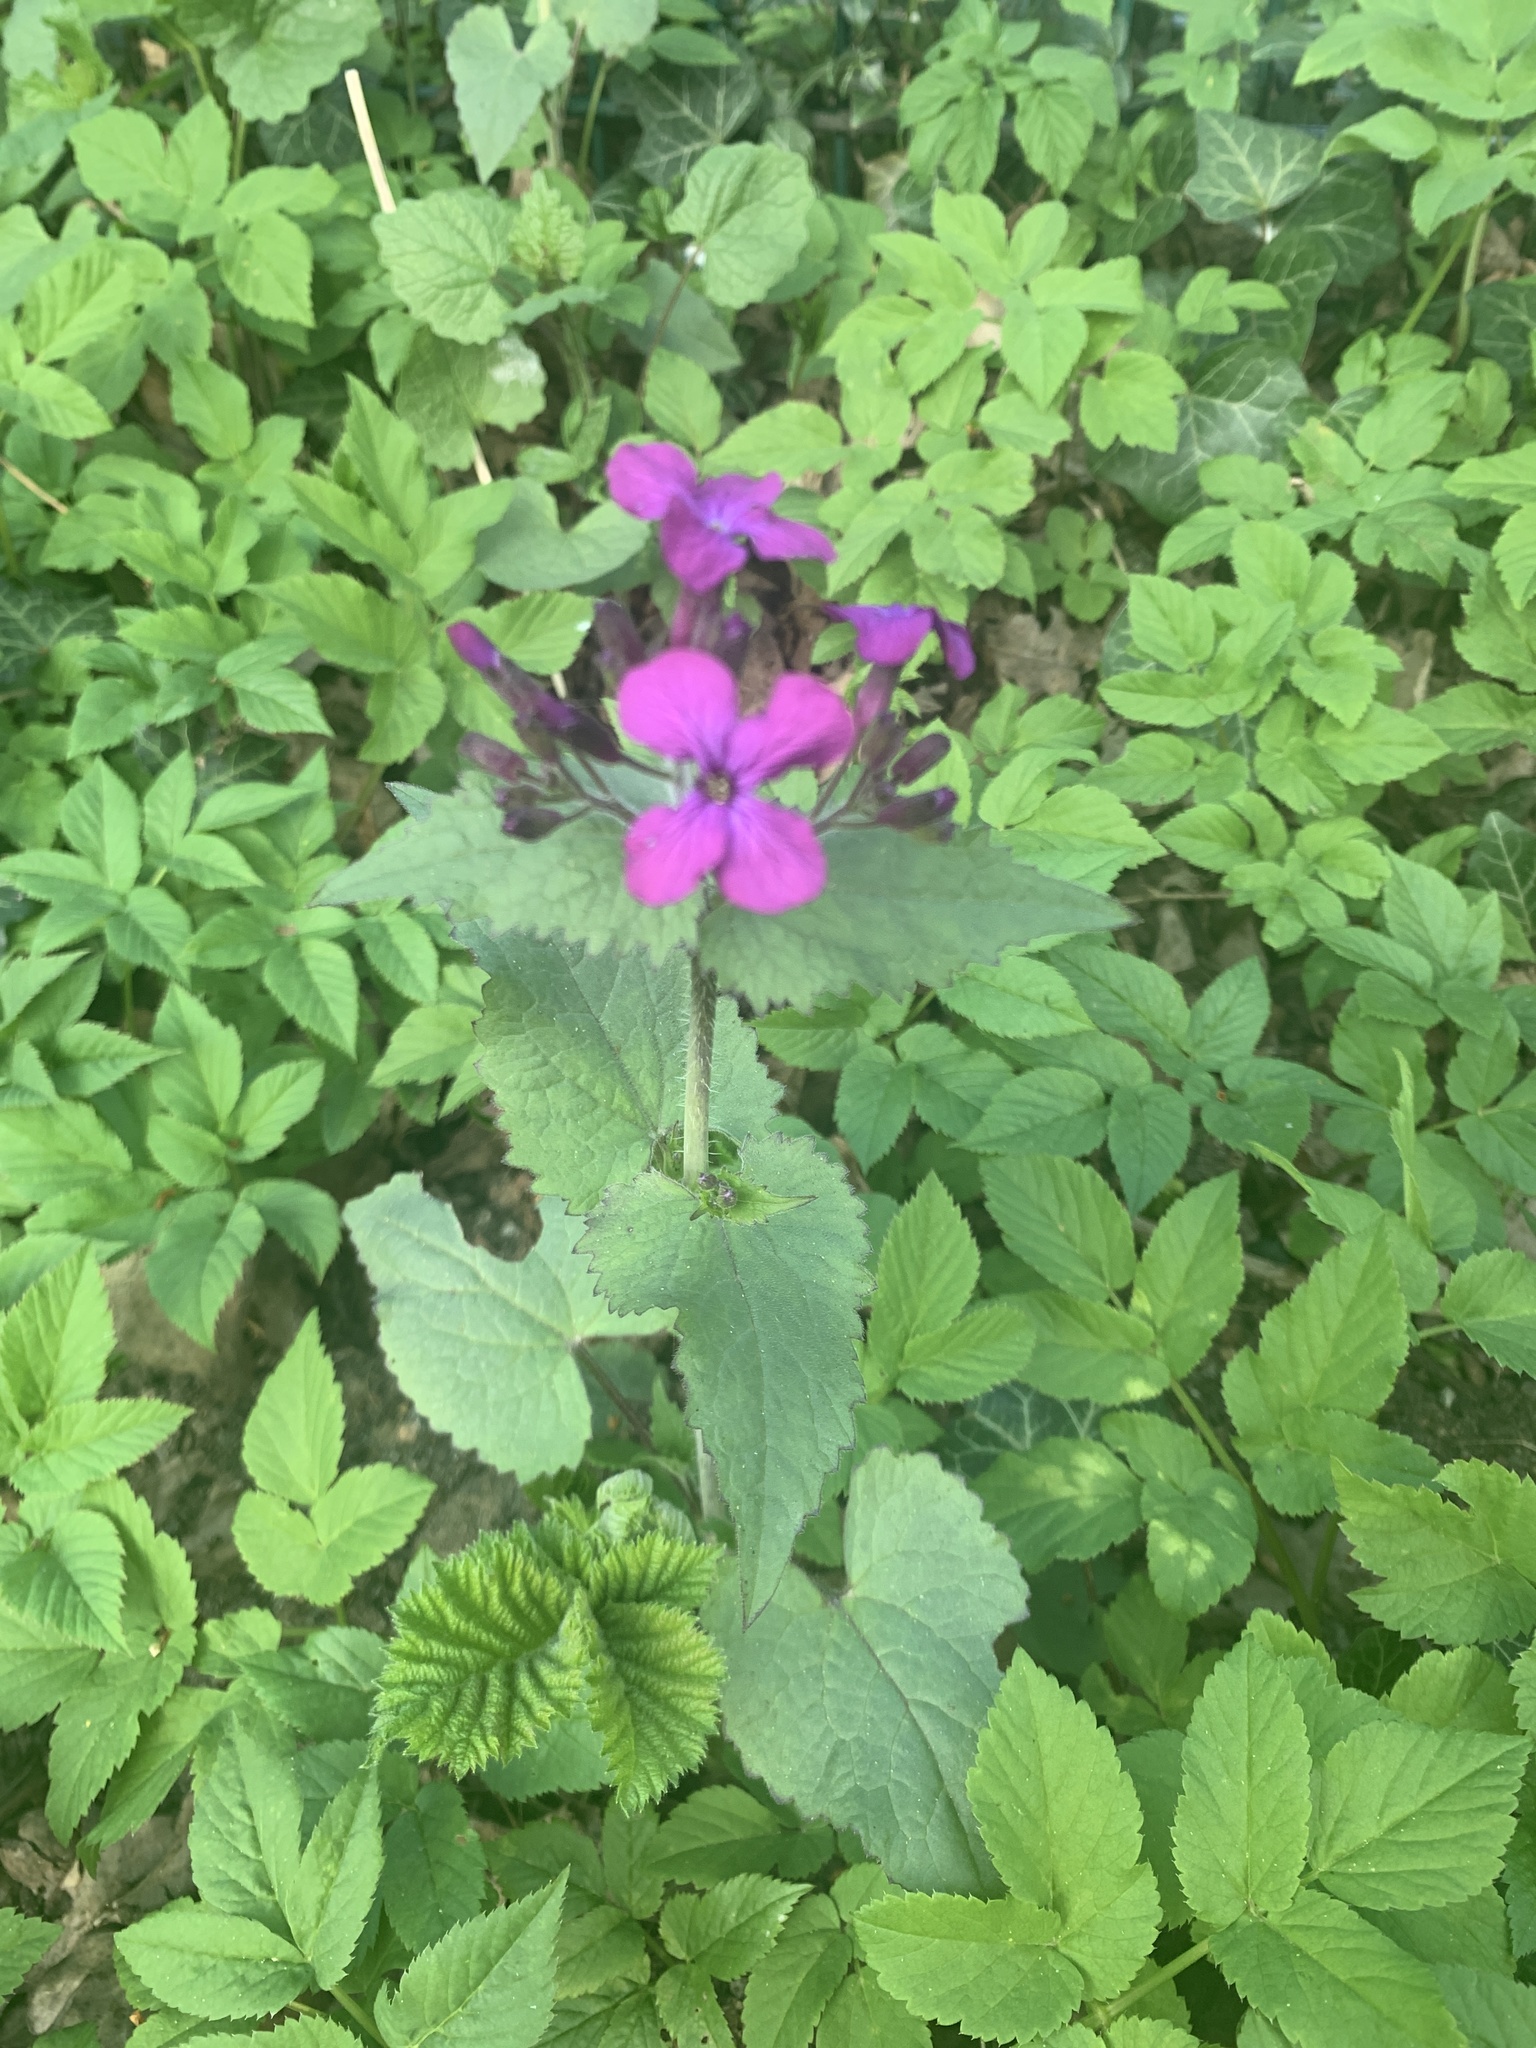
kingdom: Plantae
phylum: Tracheophyta
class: Magnoliopsida
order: Brassicales
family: Brassicaceae
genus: Lunaria
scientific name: Lunaria annua
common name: Honesty
